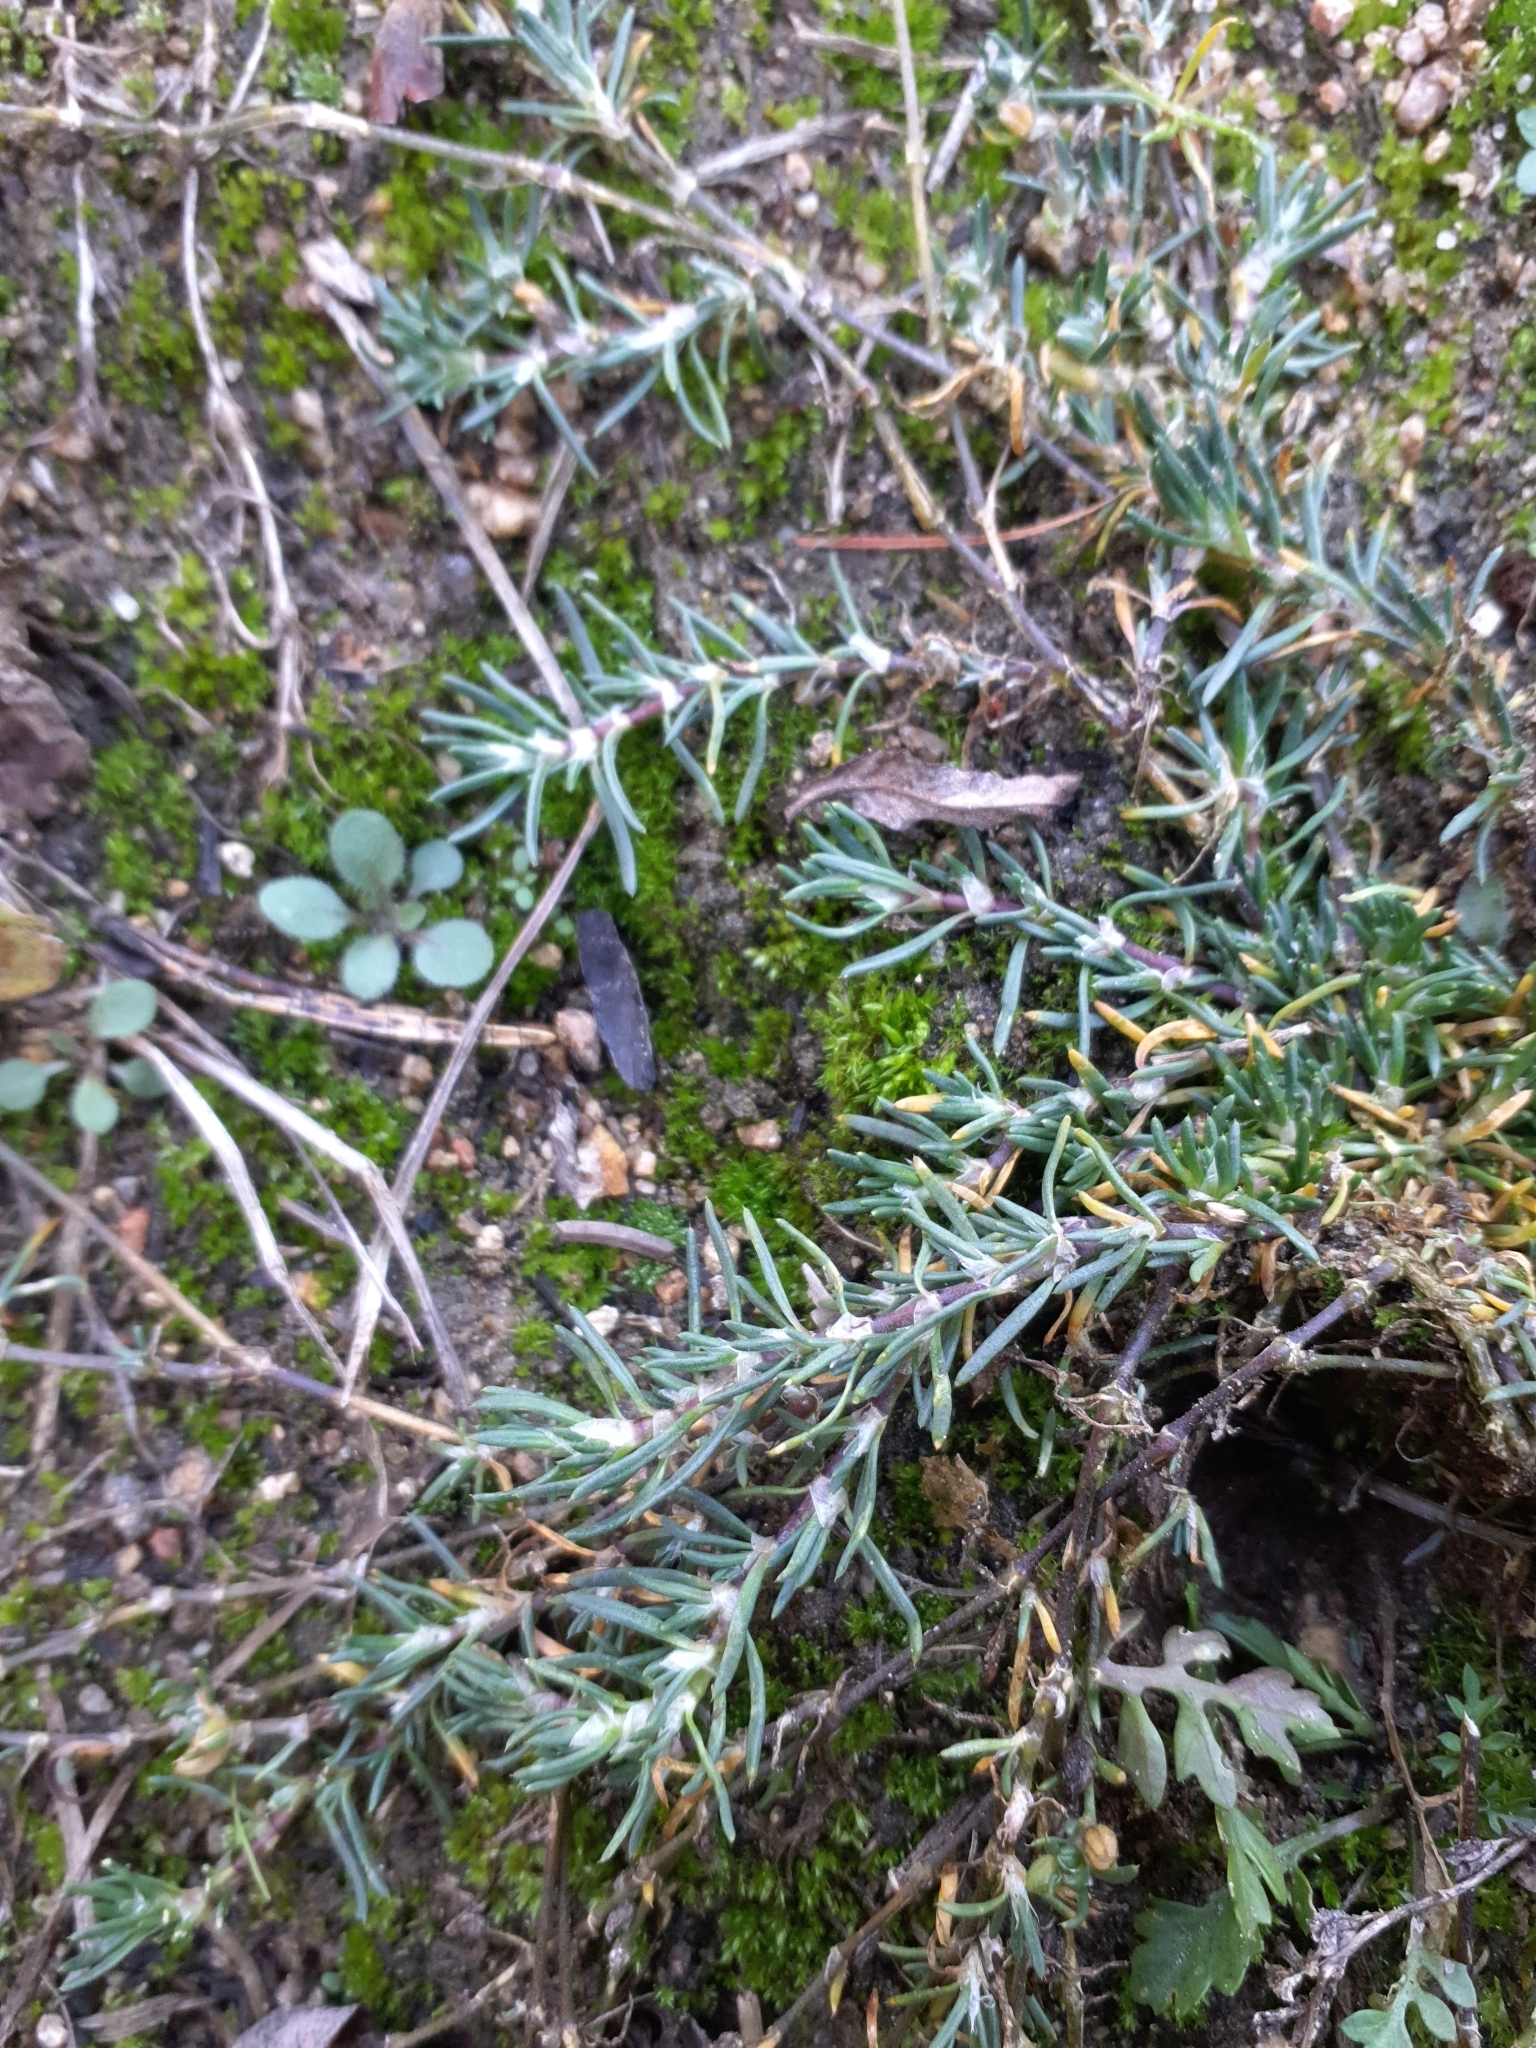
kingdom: Plantae
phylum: Tracheophyta
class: Magnoliopsida
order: Caryophyllales
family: Caryophyllaceae
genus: Spergularia
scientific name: Spergularia rubra
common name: Red sand-spurrey
